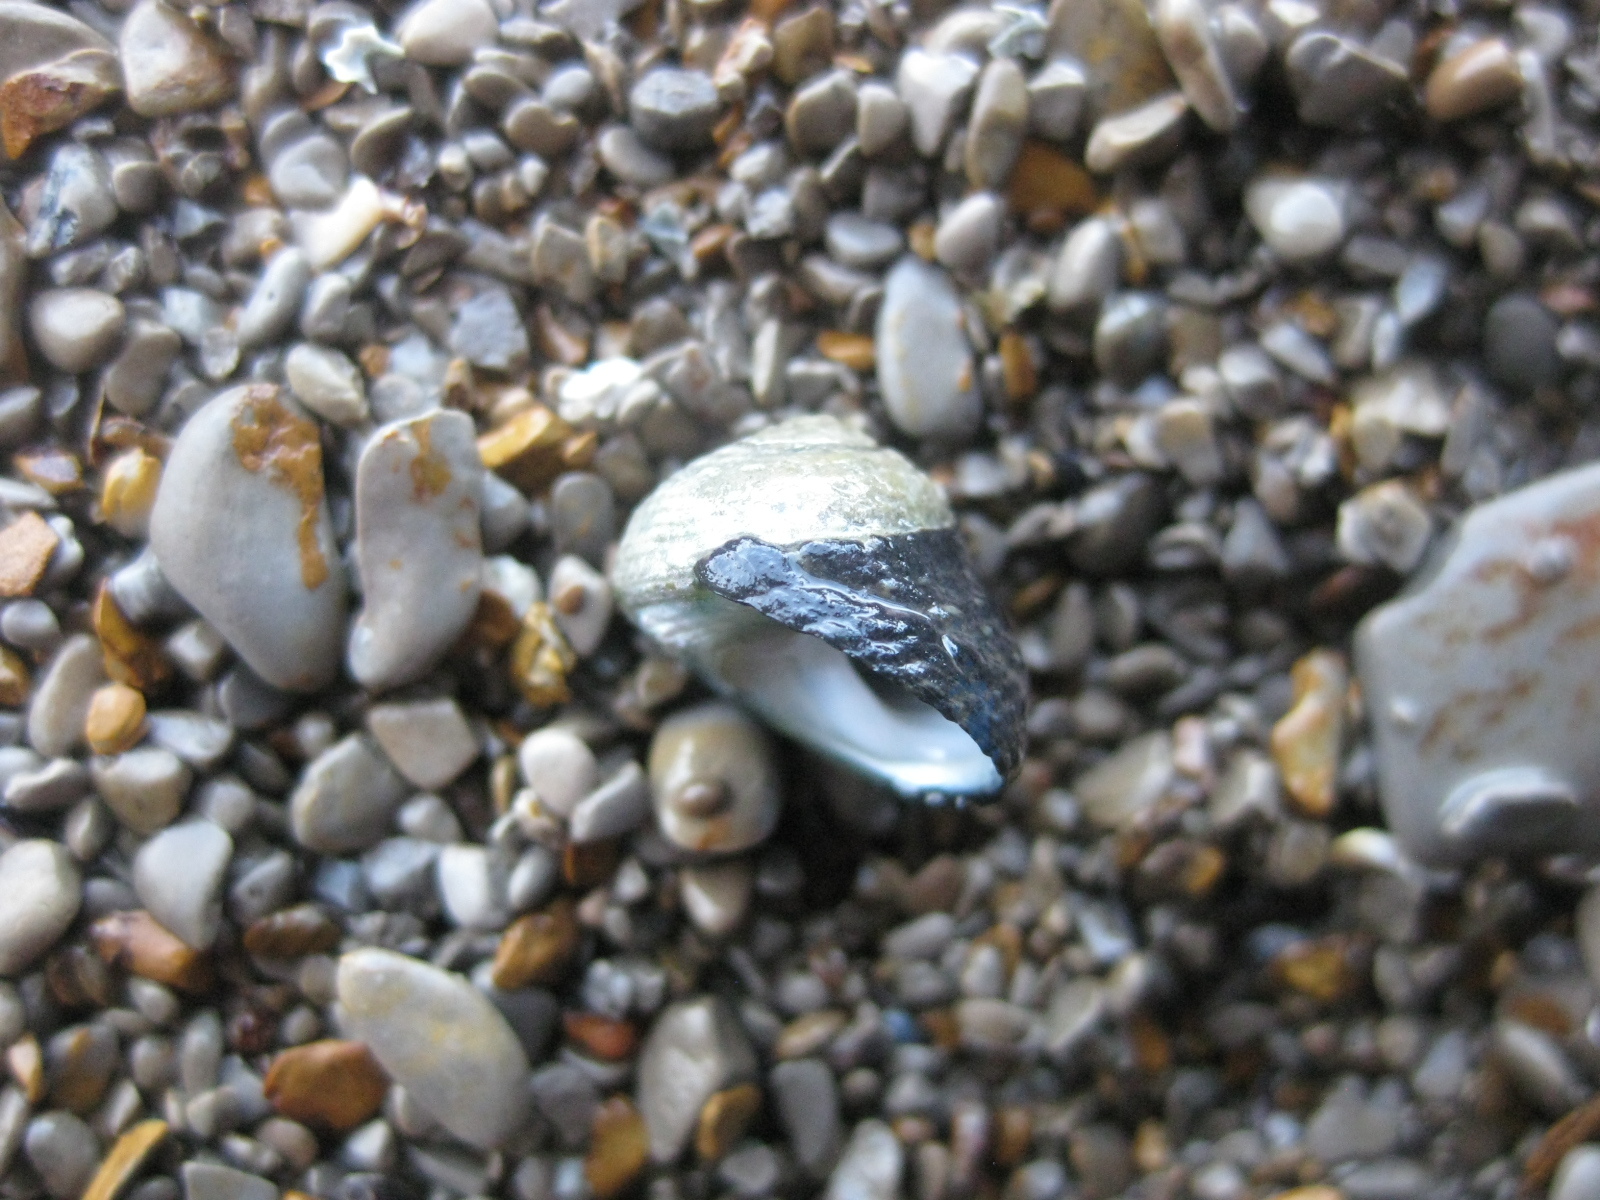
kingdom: Animalia
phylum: Mollusca
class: Gastropoda
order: Trochida
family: Trochidae
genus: Diloma
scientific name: Diloma zelandicum
